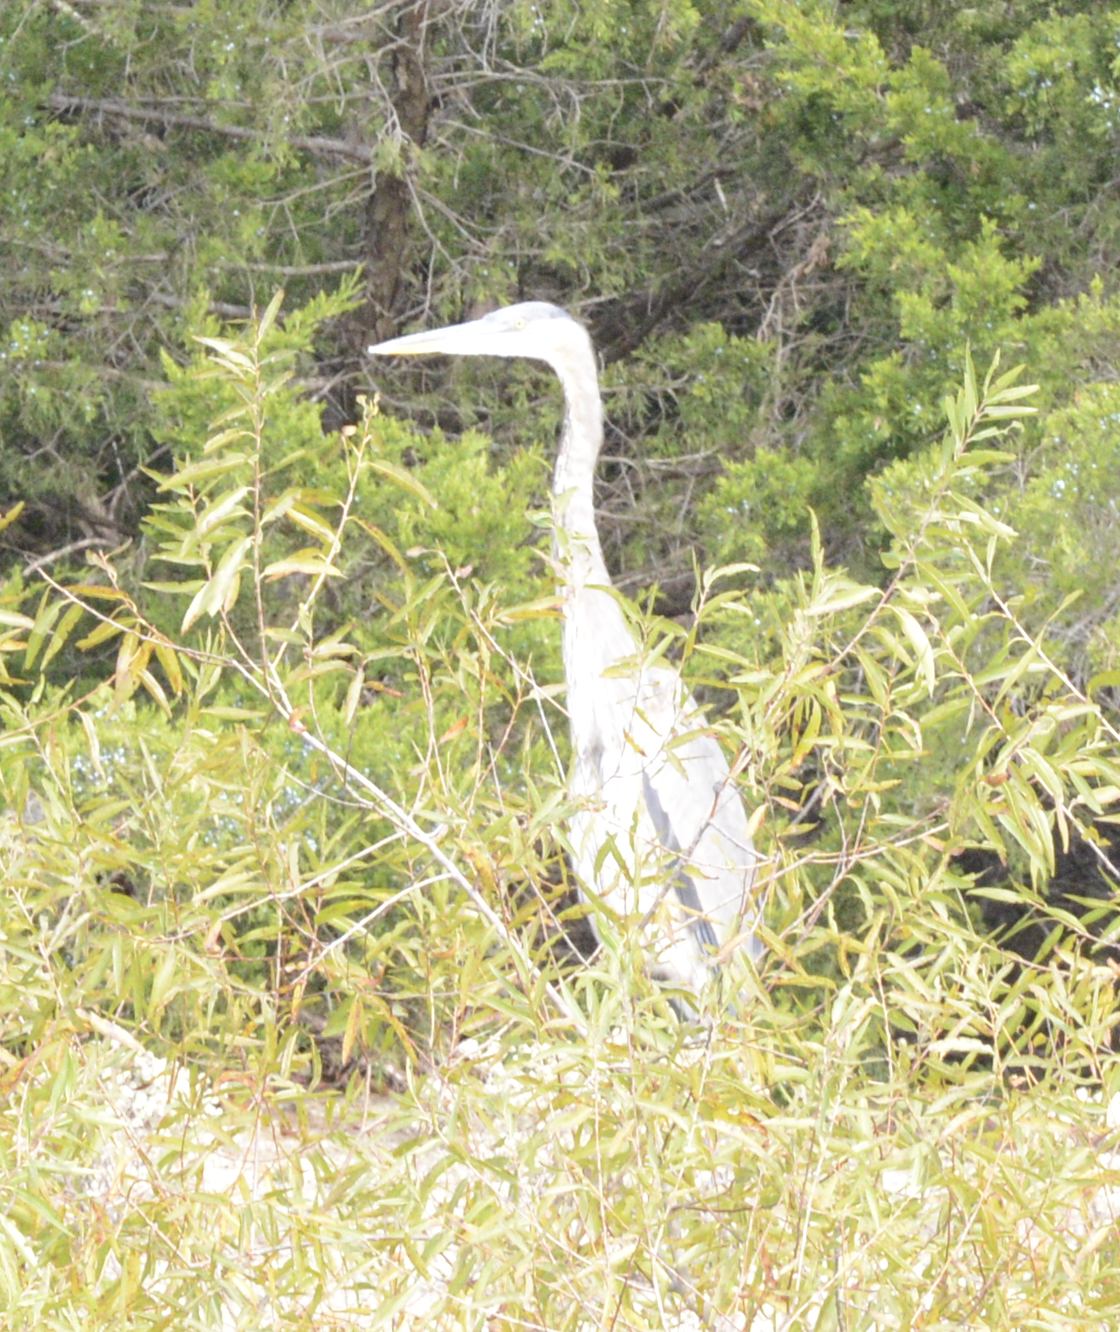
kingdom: Animalia
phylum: Chordata
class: Aves
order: Pelecaniformes
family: Ardeidae
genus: Ardea
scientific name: Ardea herodias
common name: Great blue heron
